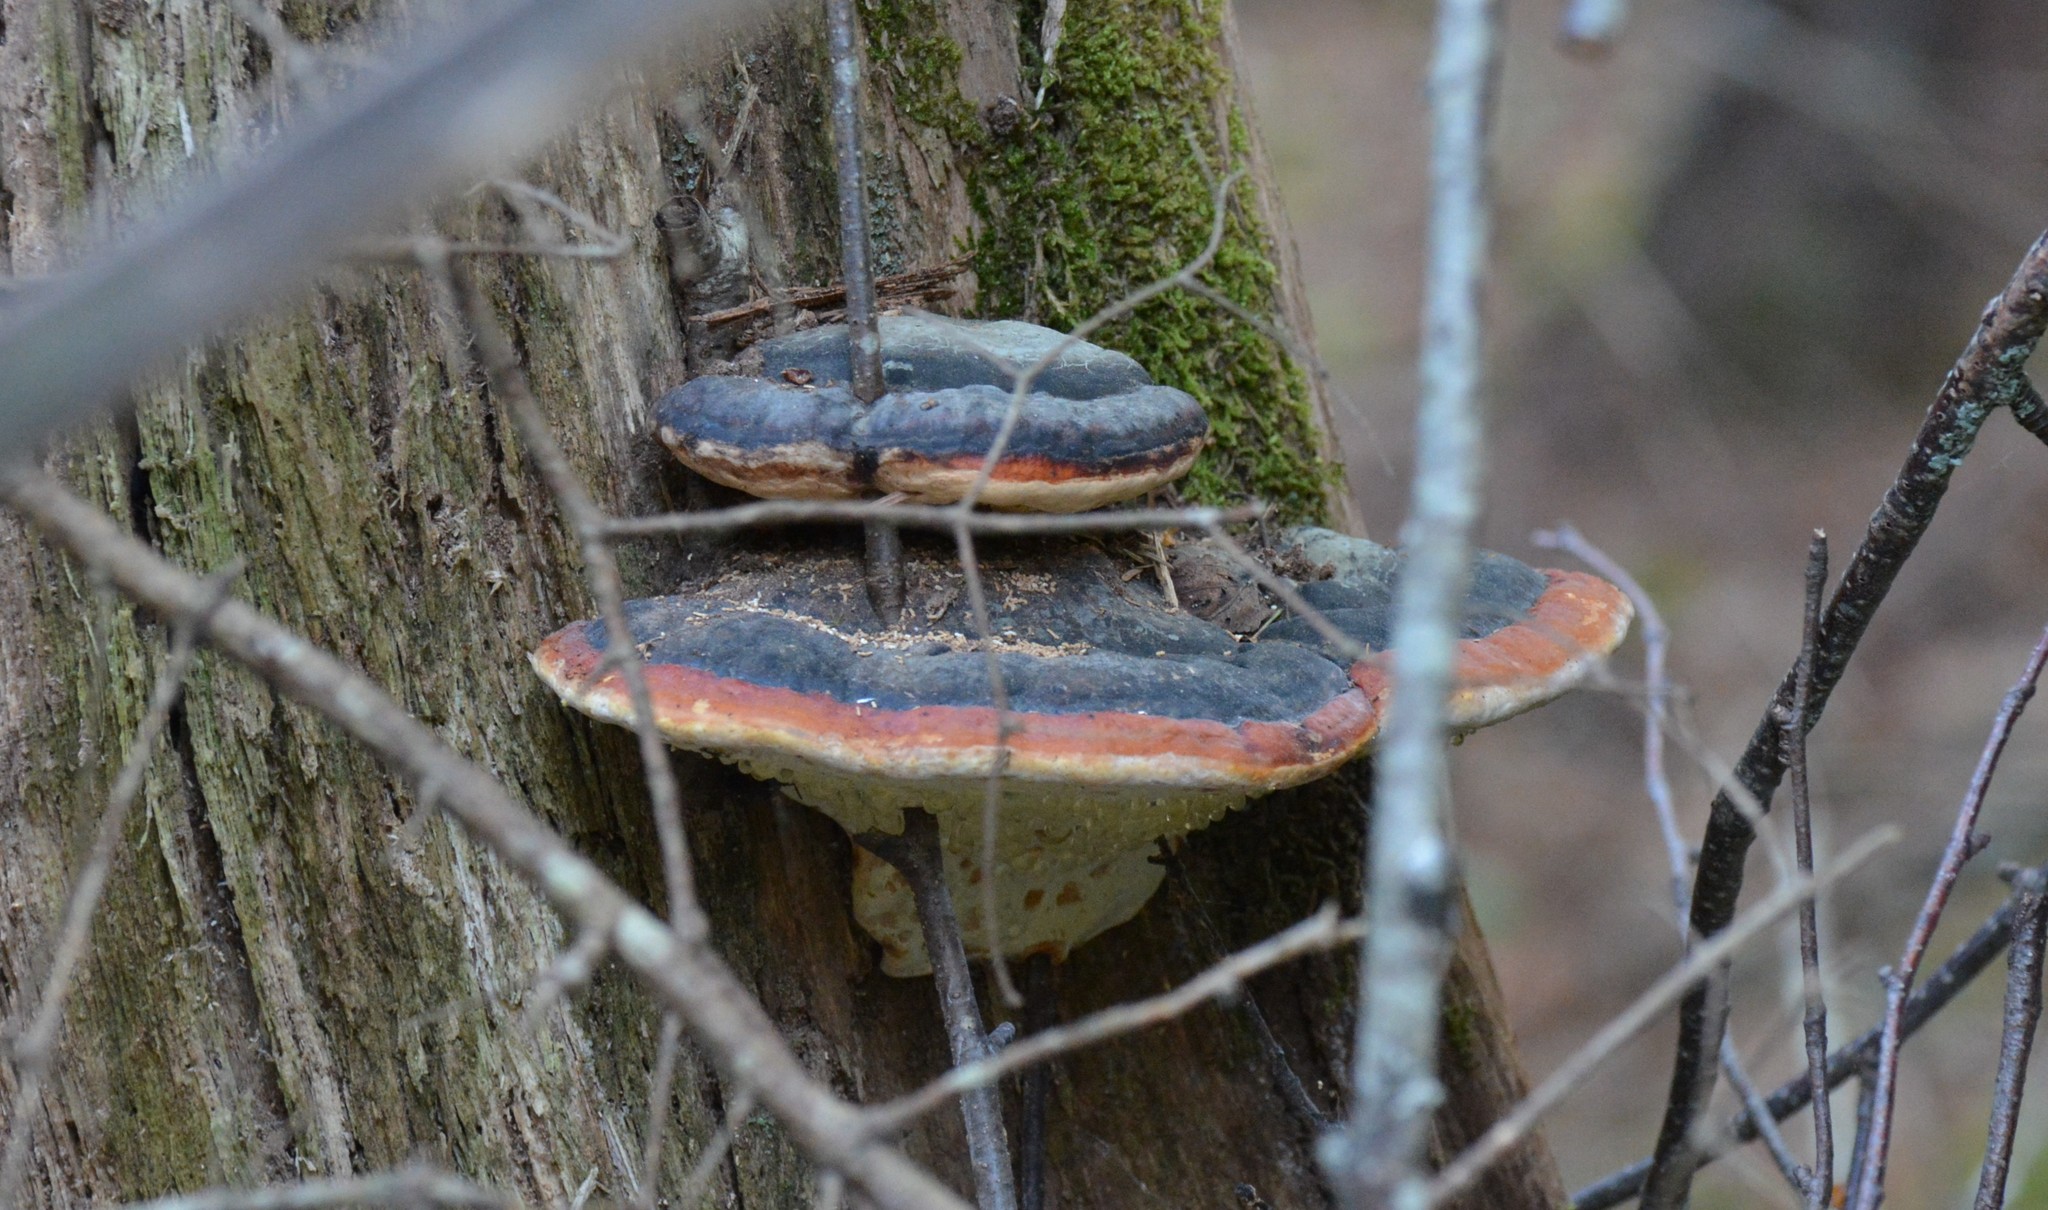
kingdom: Fungi
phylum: Basidiomycota
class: Agaricomycetes
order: Polyporales
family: Fomitopsidaceae
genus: Fomitopsis
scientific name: Fomitopsis mounceae
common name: Northern red belt
